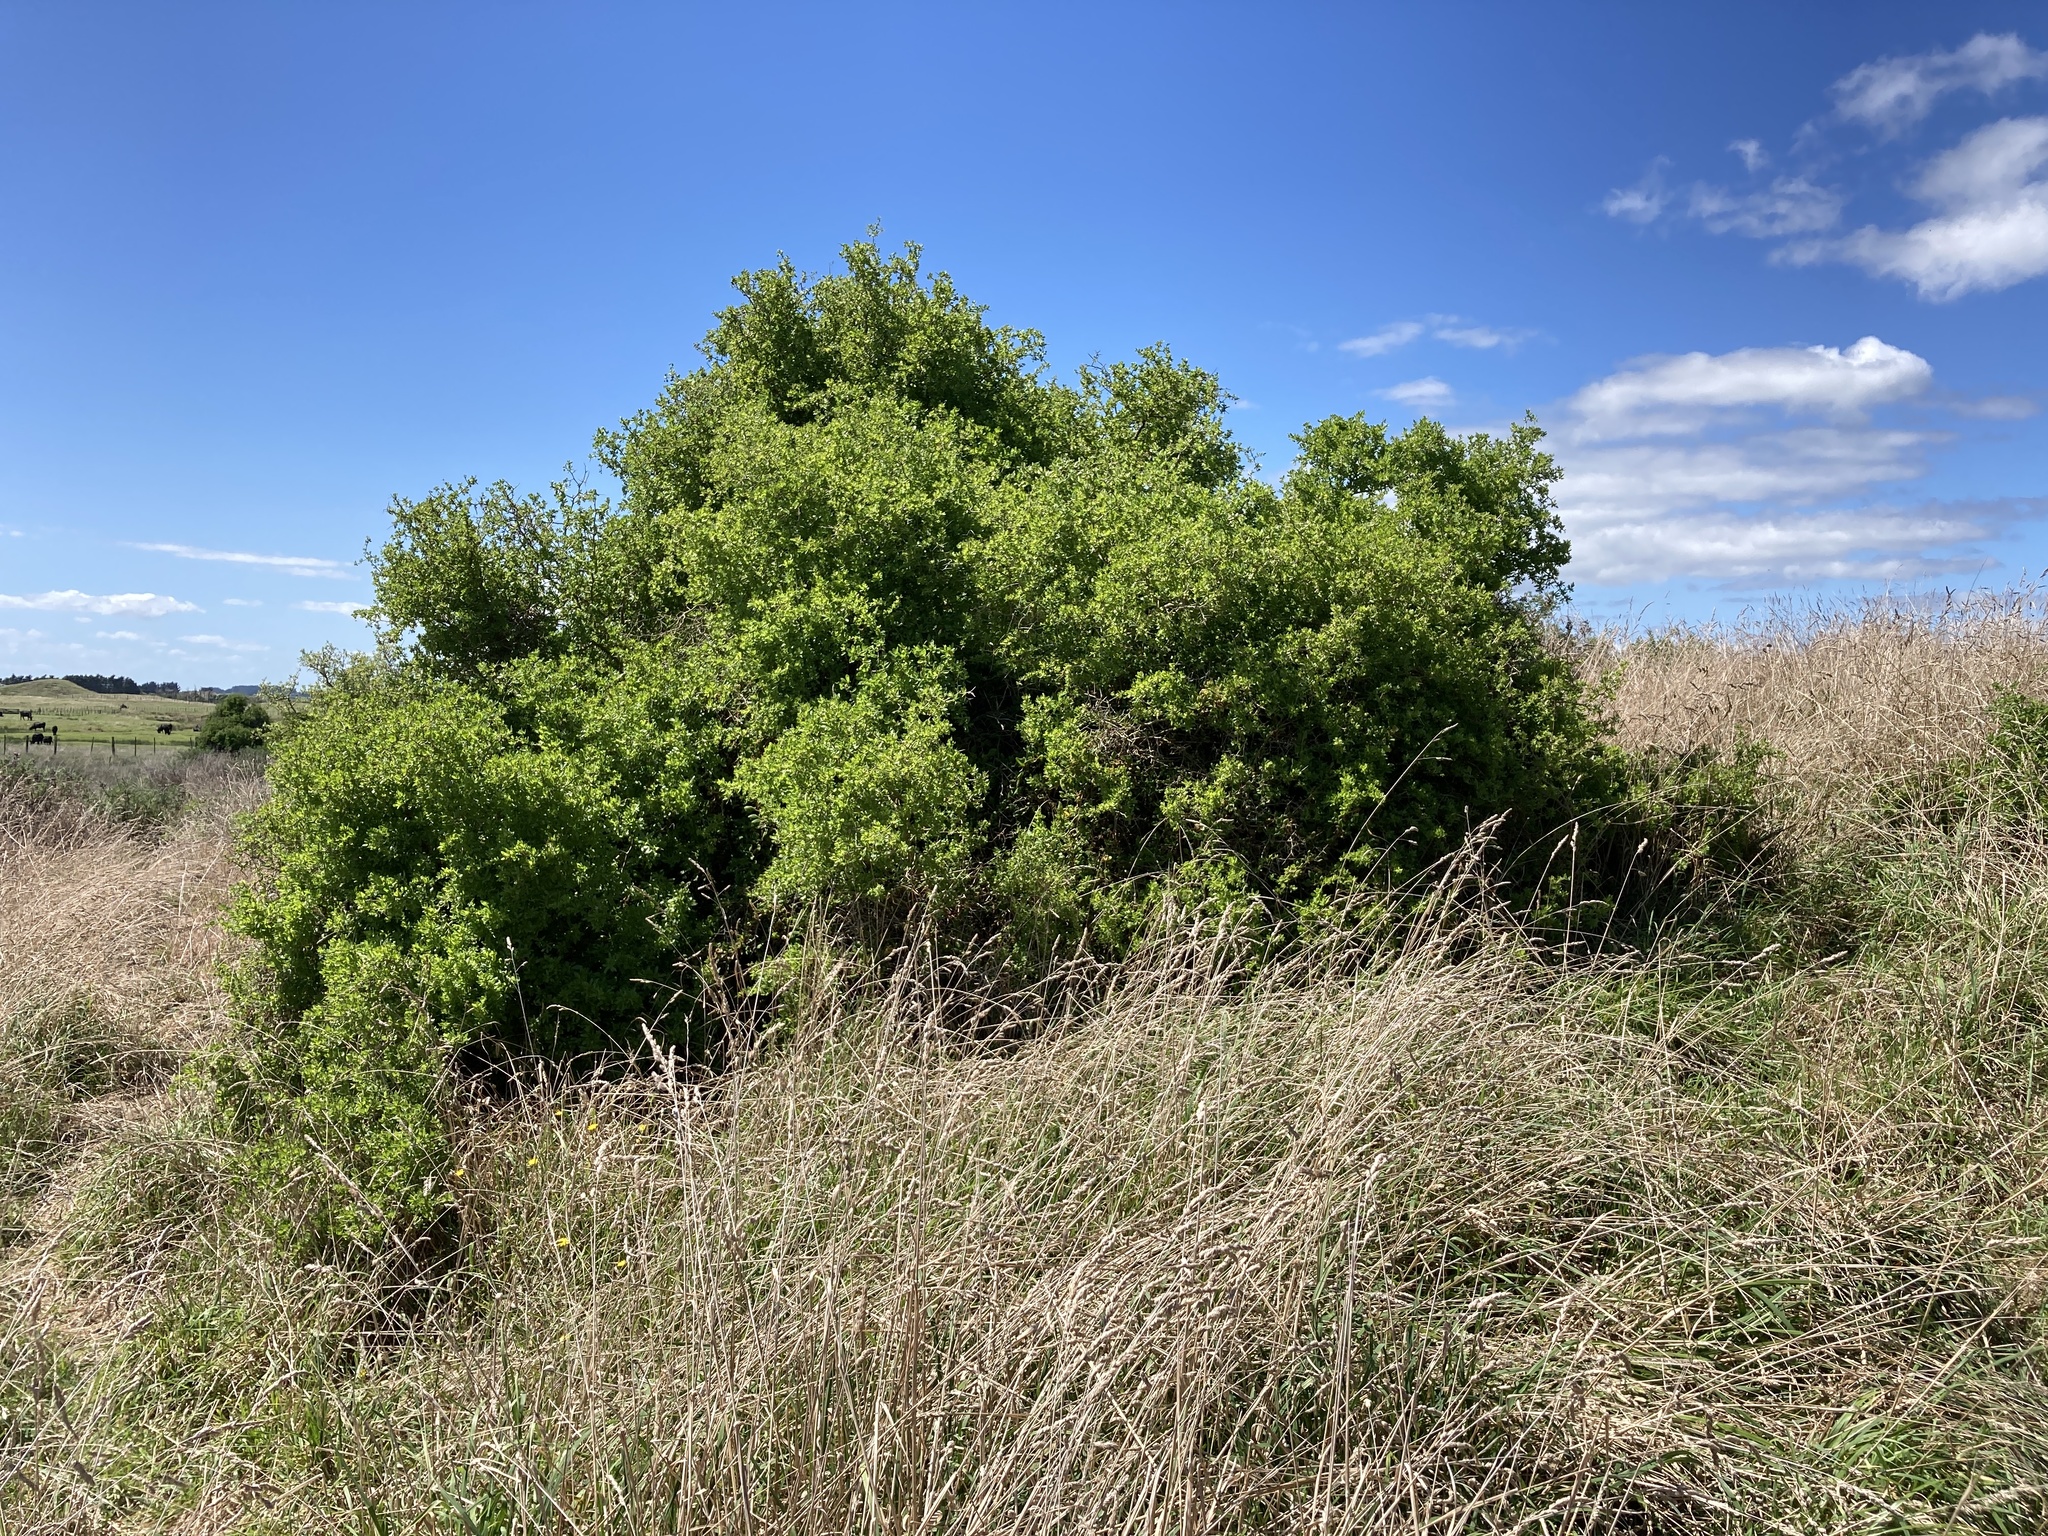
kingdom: Plantae
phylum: Tracheophyta
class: Magnoliopsida
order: Solanales
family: Solanaceae
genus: Lycium
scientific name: Lycium ferocissimum
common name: African boxthorn
